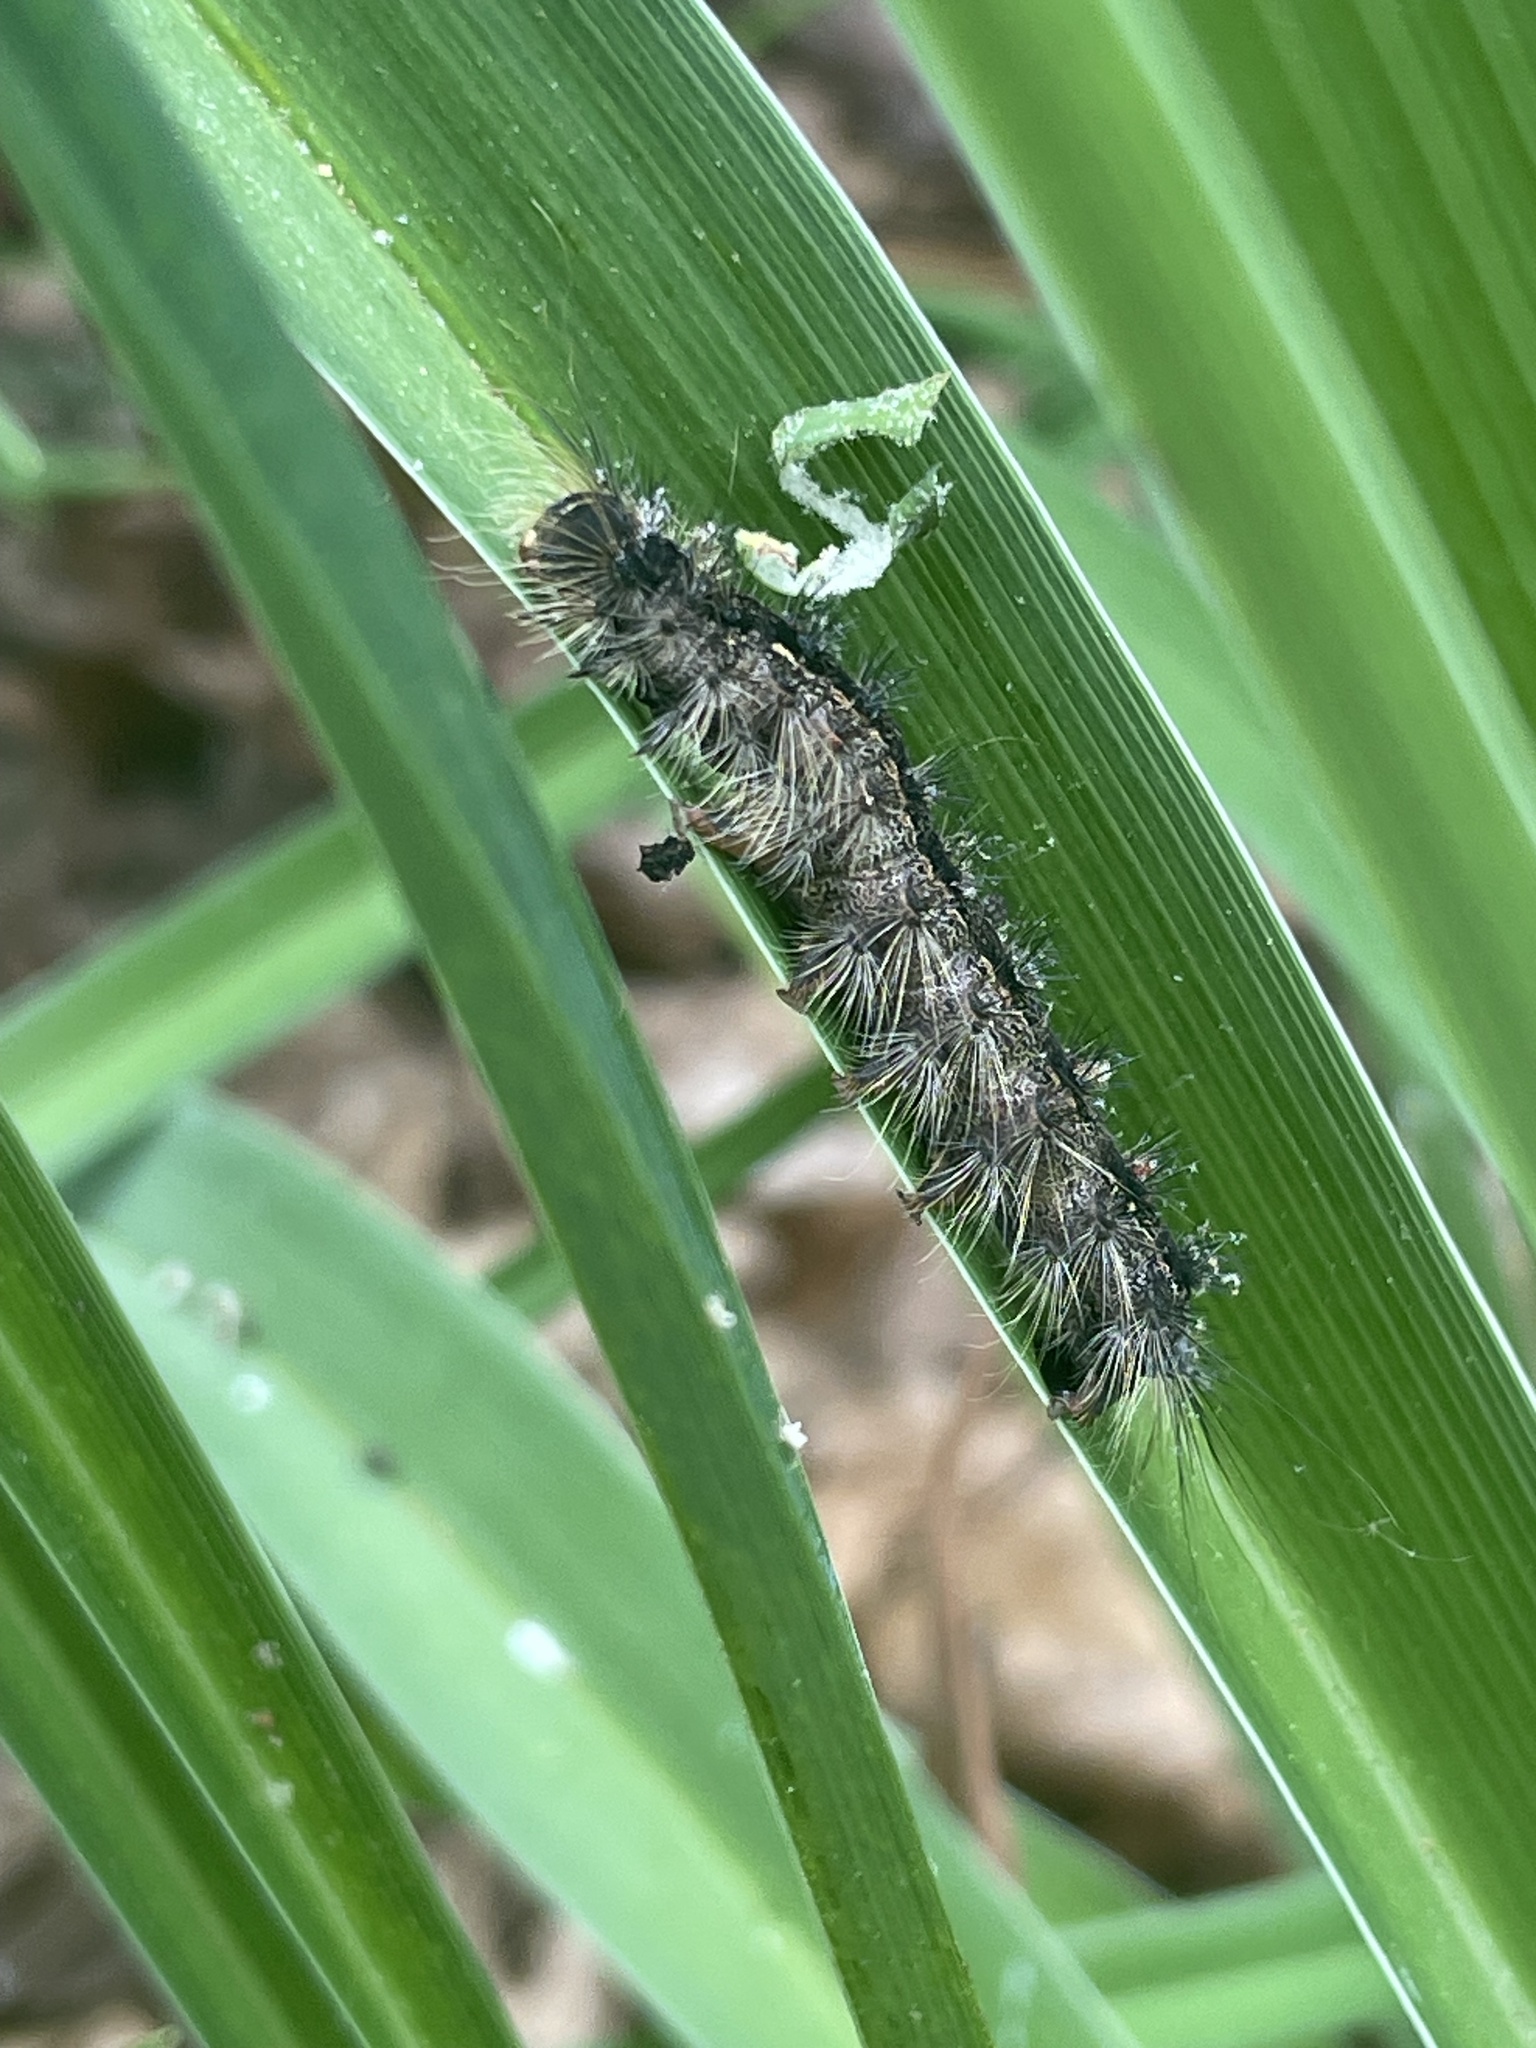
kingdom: Animalia
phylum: Arthropoda
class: Insecta
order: Lepidoptera
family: Erebidae
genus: Lymantria
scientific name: Lymantria dispar
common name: Gypsy moth
